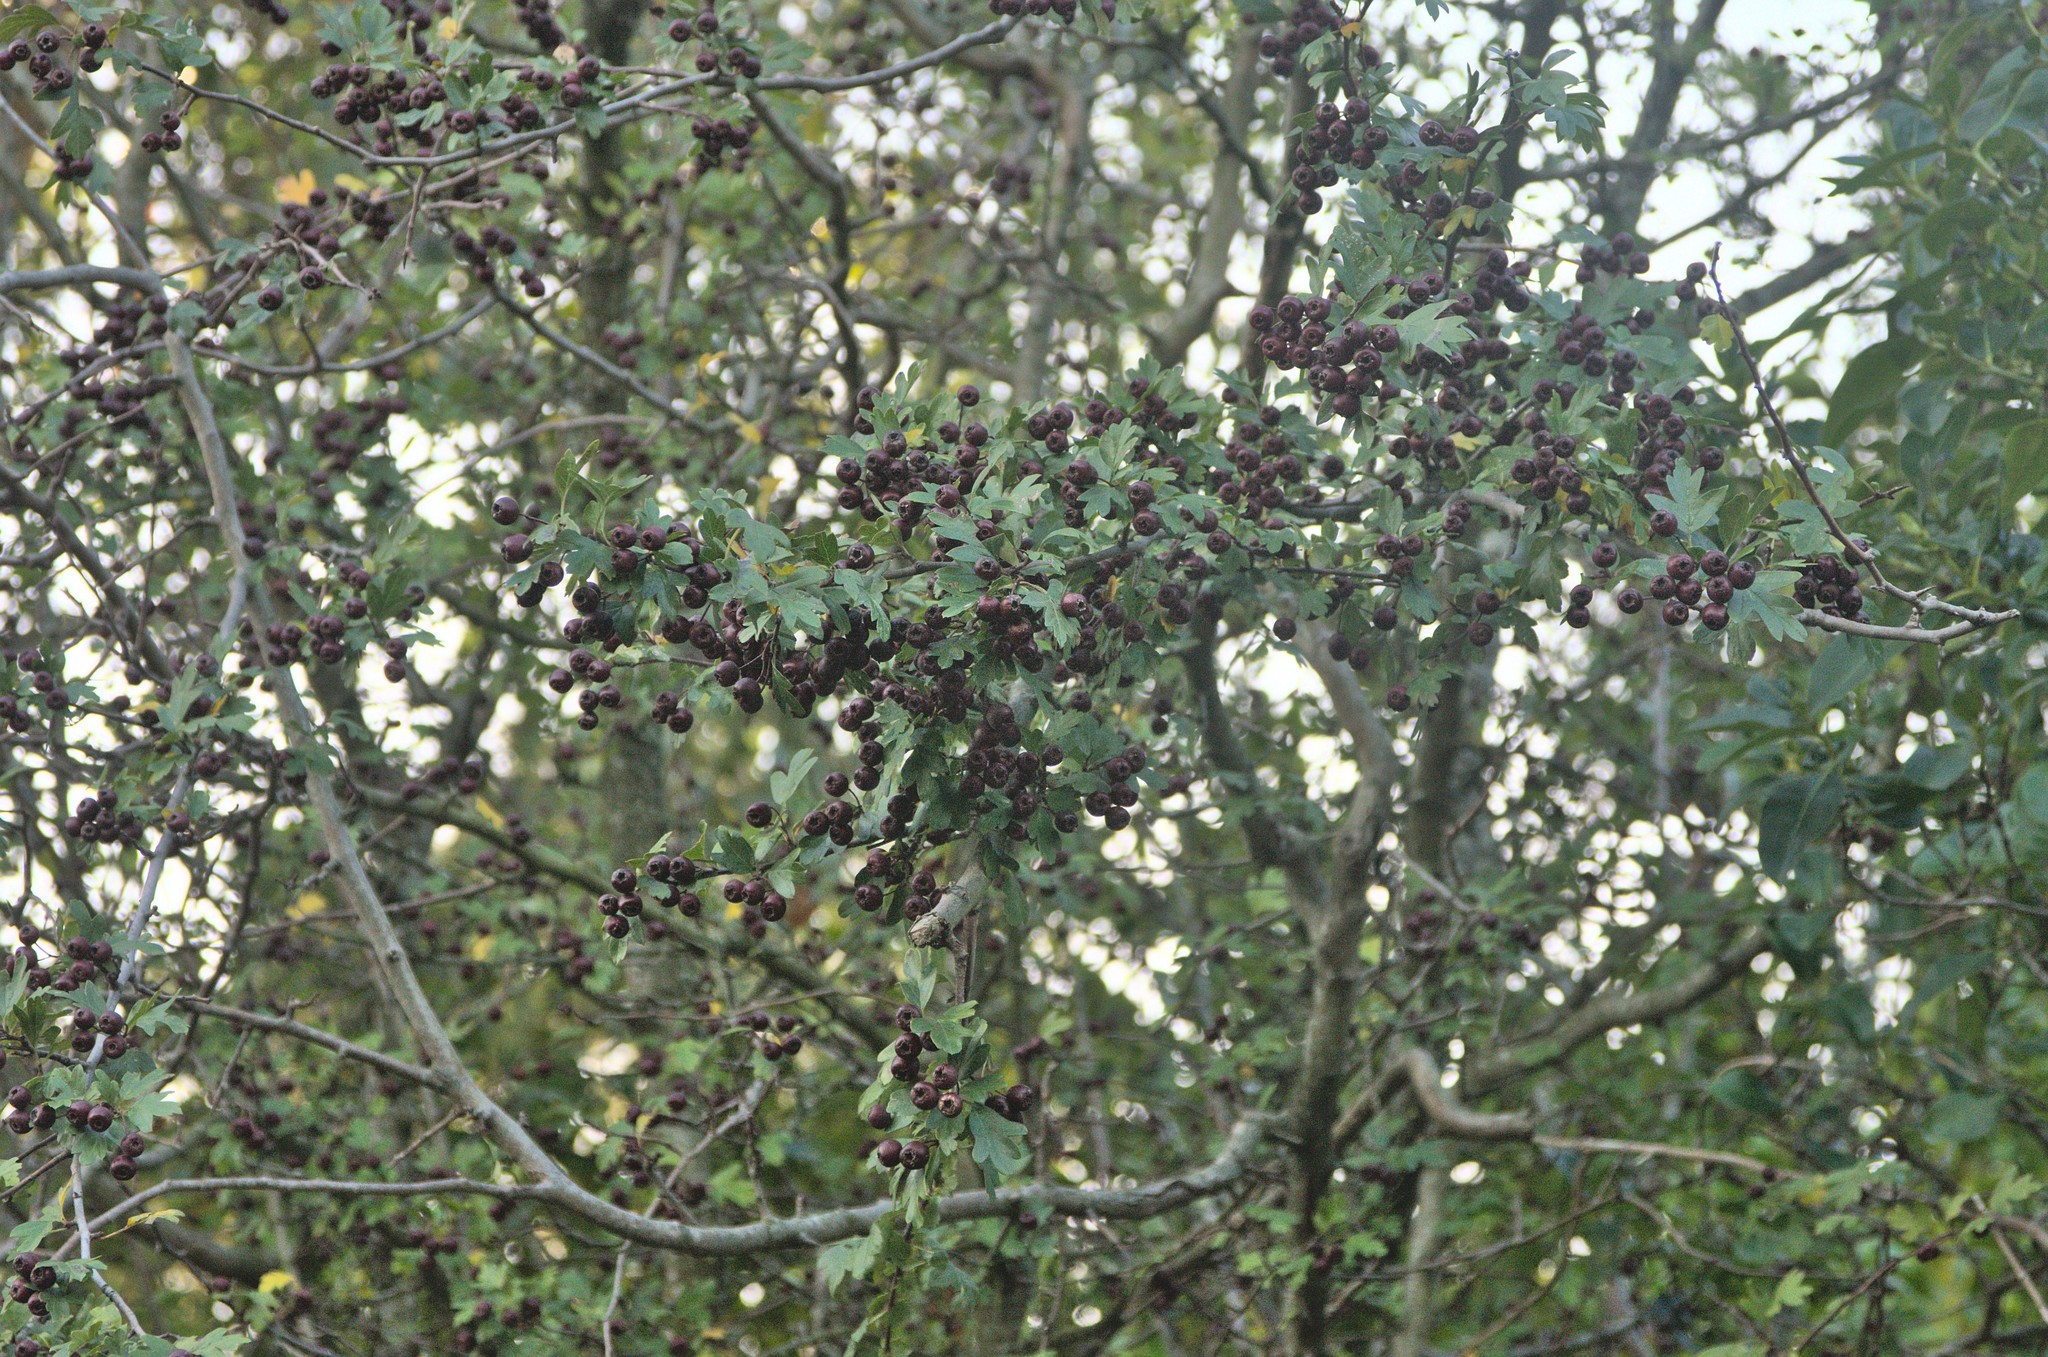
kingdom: Plantae
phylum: Tracheophyta
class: Magnoliopsida
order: Rosales
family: Rosaceae
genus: Crataegus
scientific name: Crataegus monogyna
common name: Hawthorn
